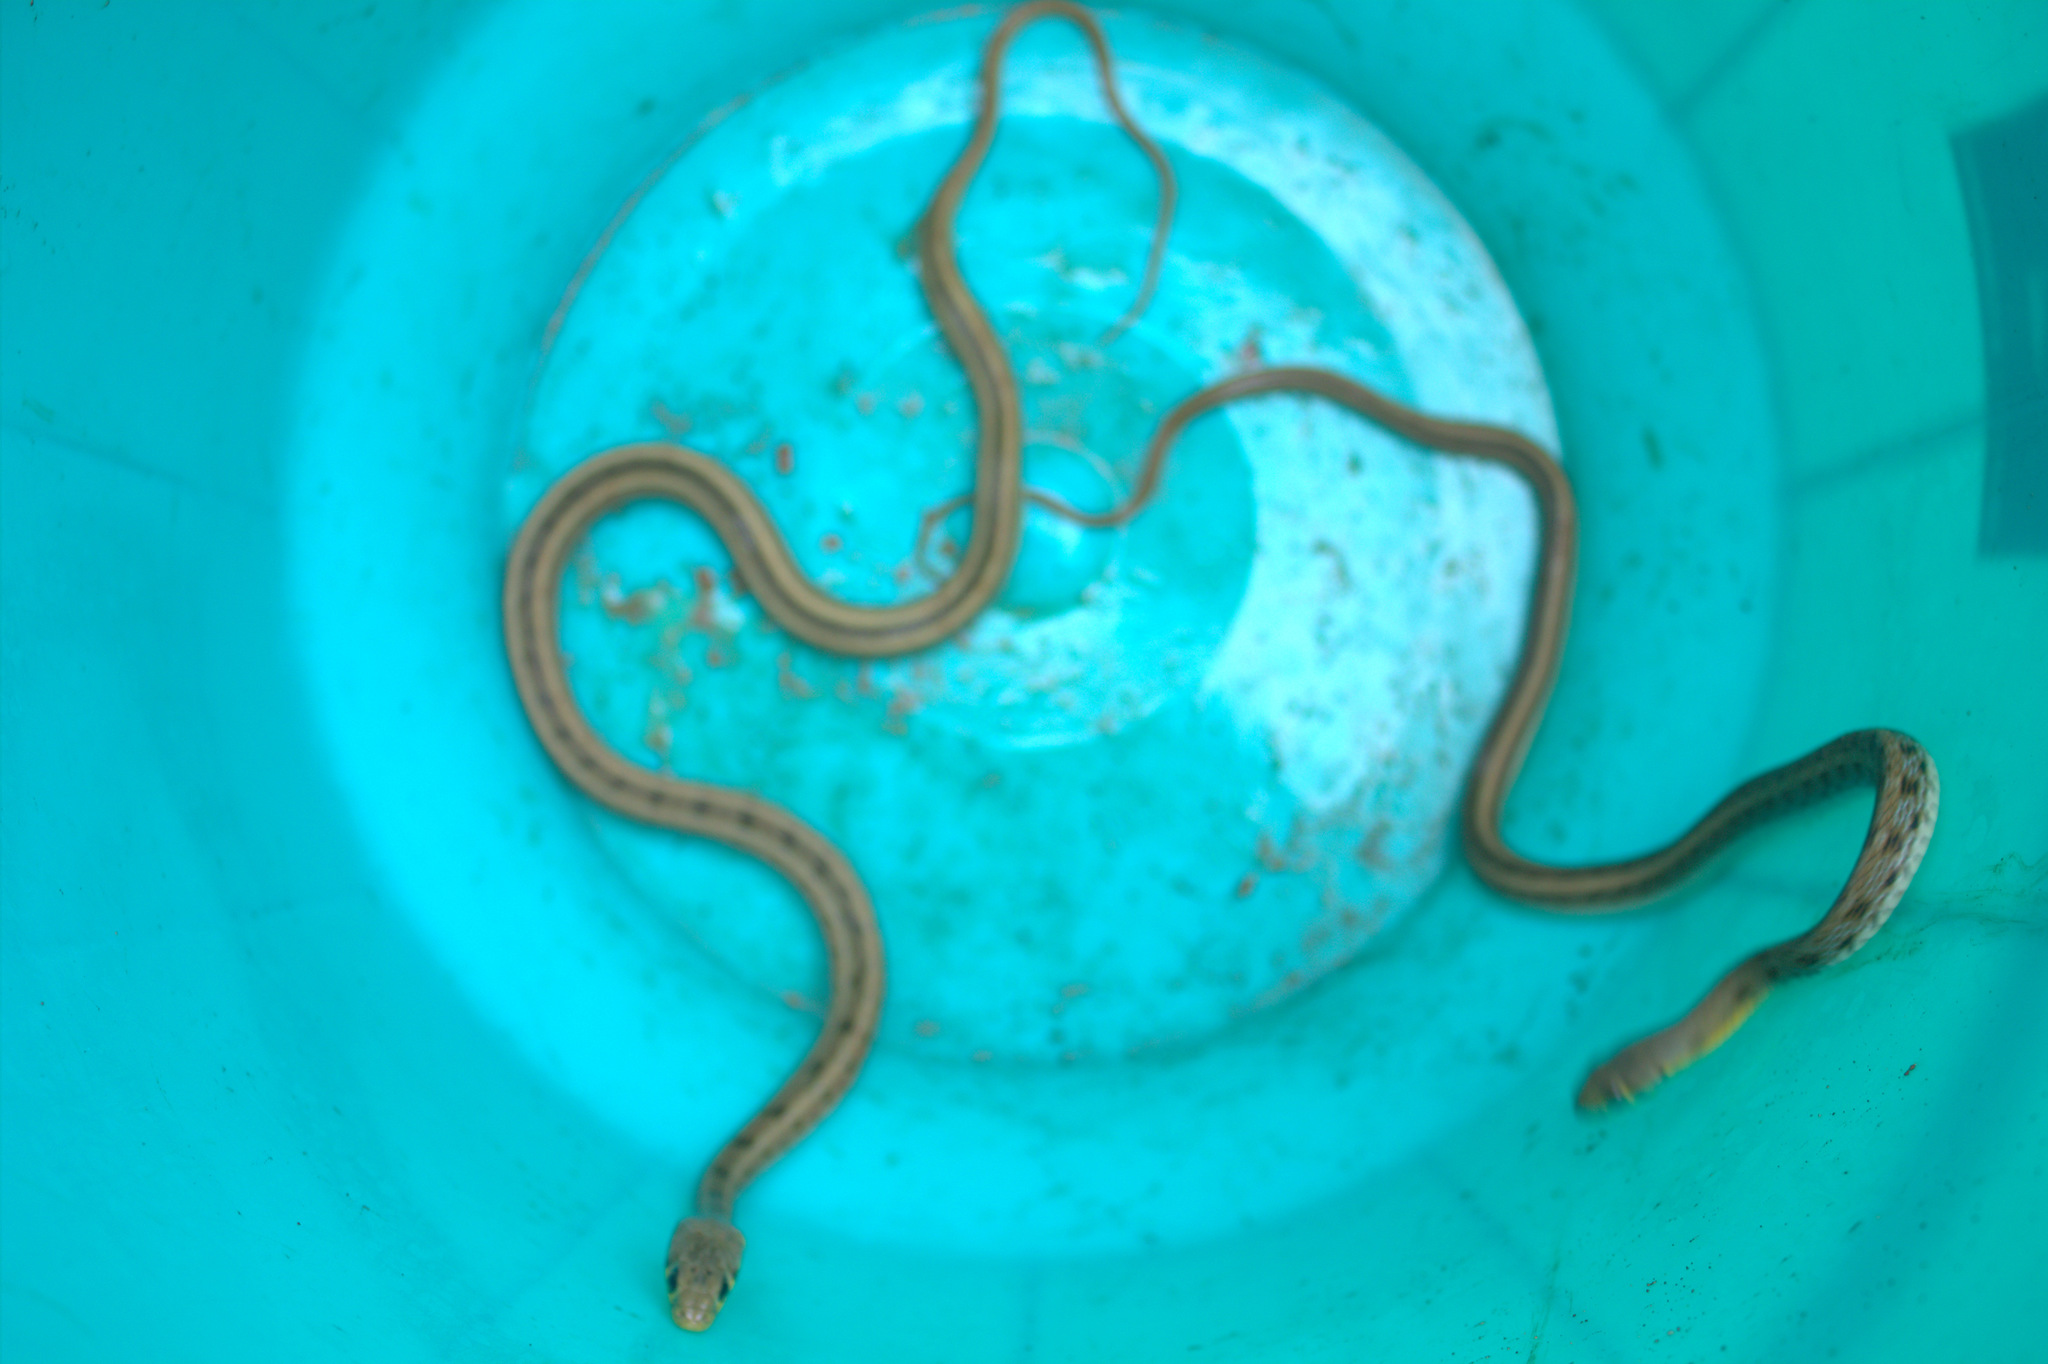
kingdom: Animalia
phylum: Chordata
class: Squamata
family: Colubridae
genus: Amphiesma
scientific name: Amphiesma stolatum
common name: Buff striped keelback
